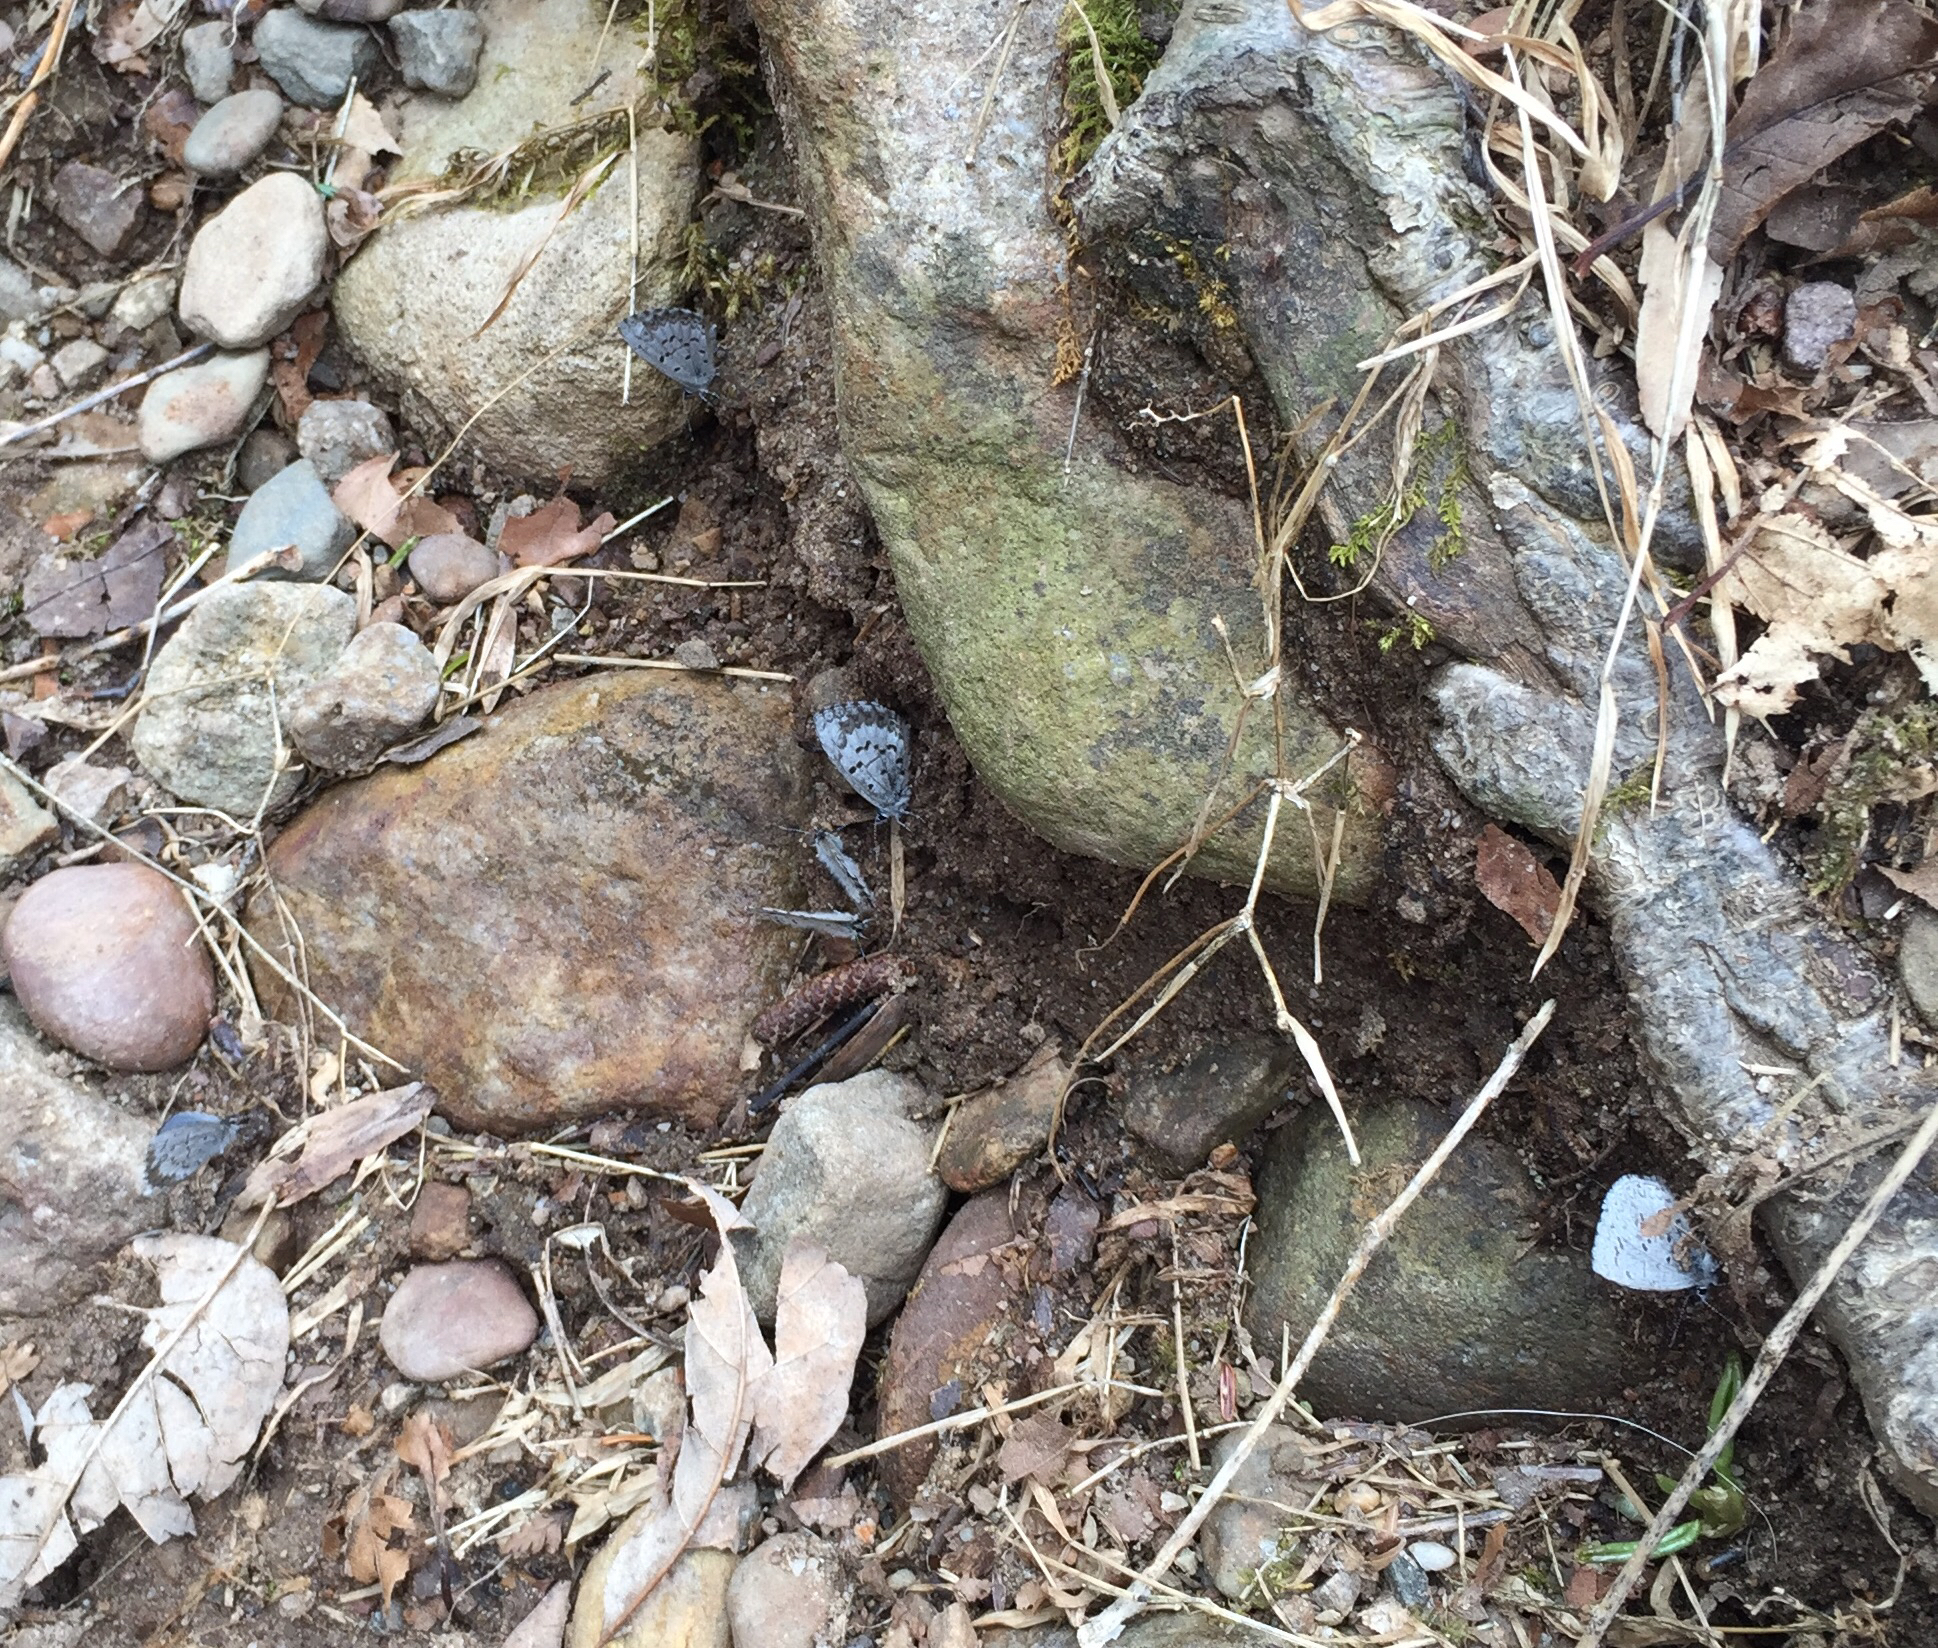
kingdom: Animalia
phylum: Arthropoda
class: Insecta
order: Lepidoptera
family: Lycaenidae
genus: Celastrina
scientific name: Celastrina ladon
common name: Spring azure
